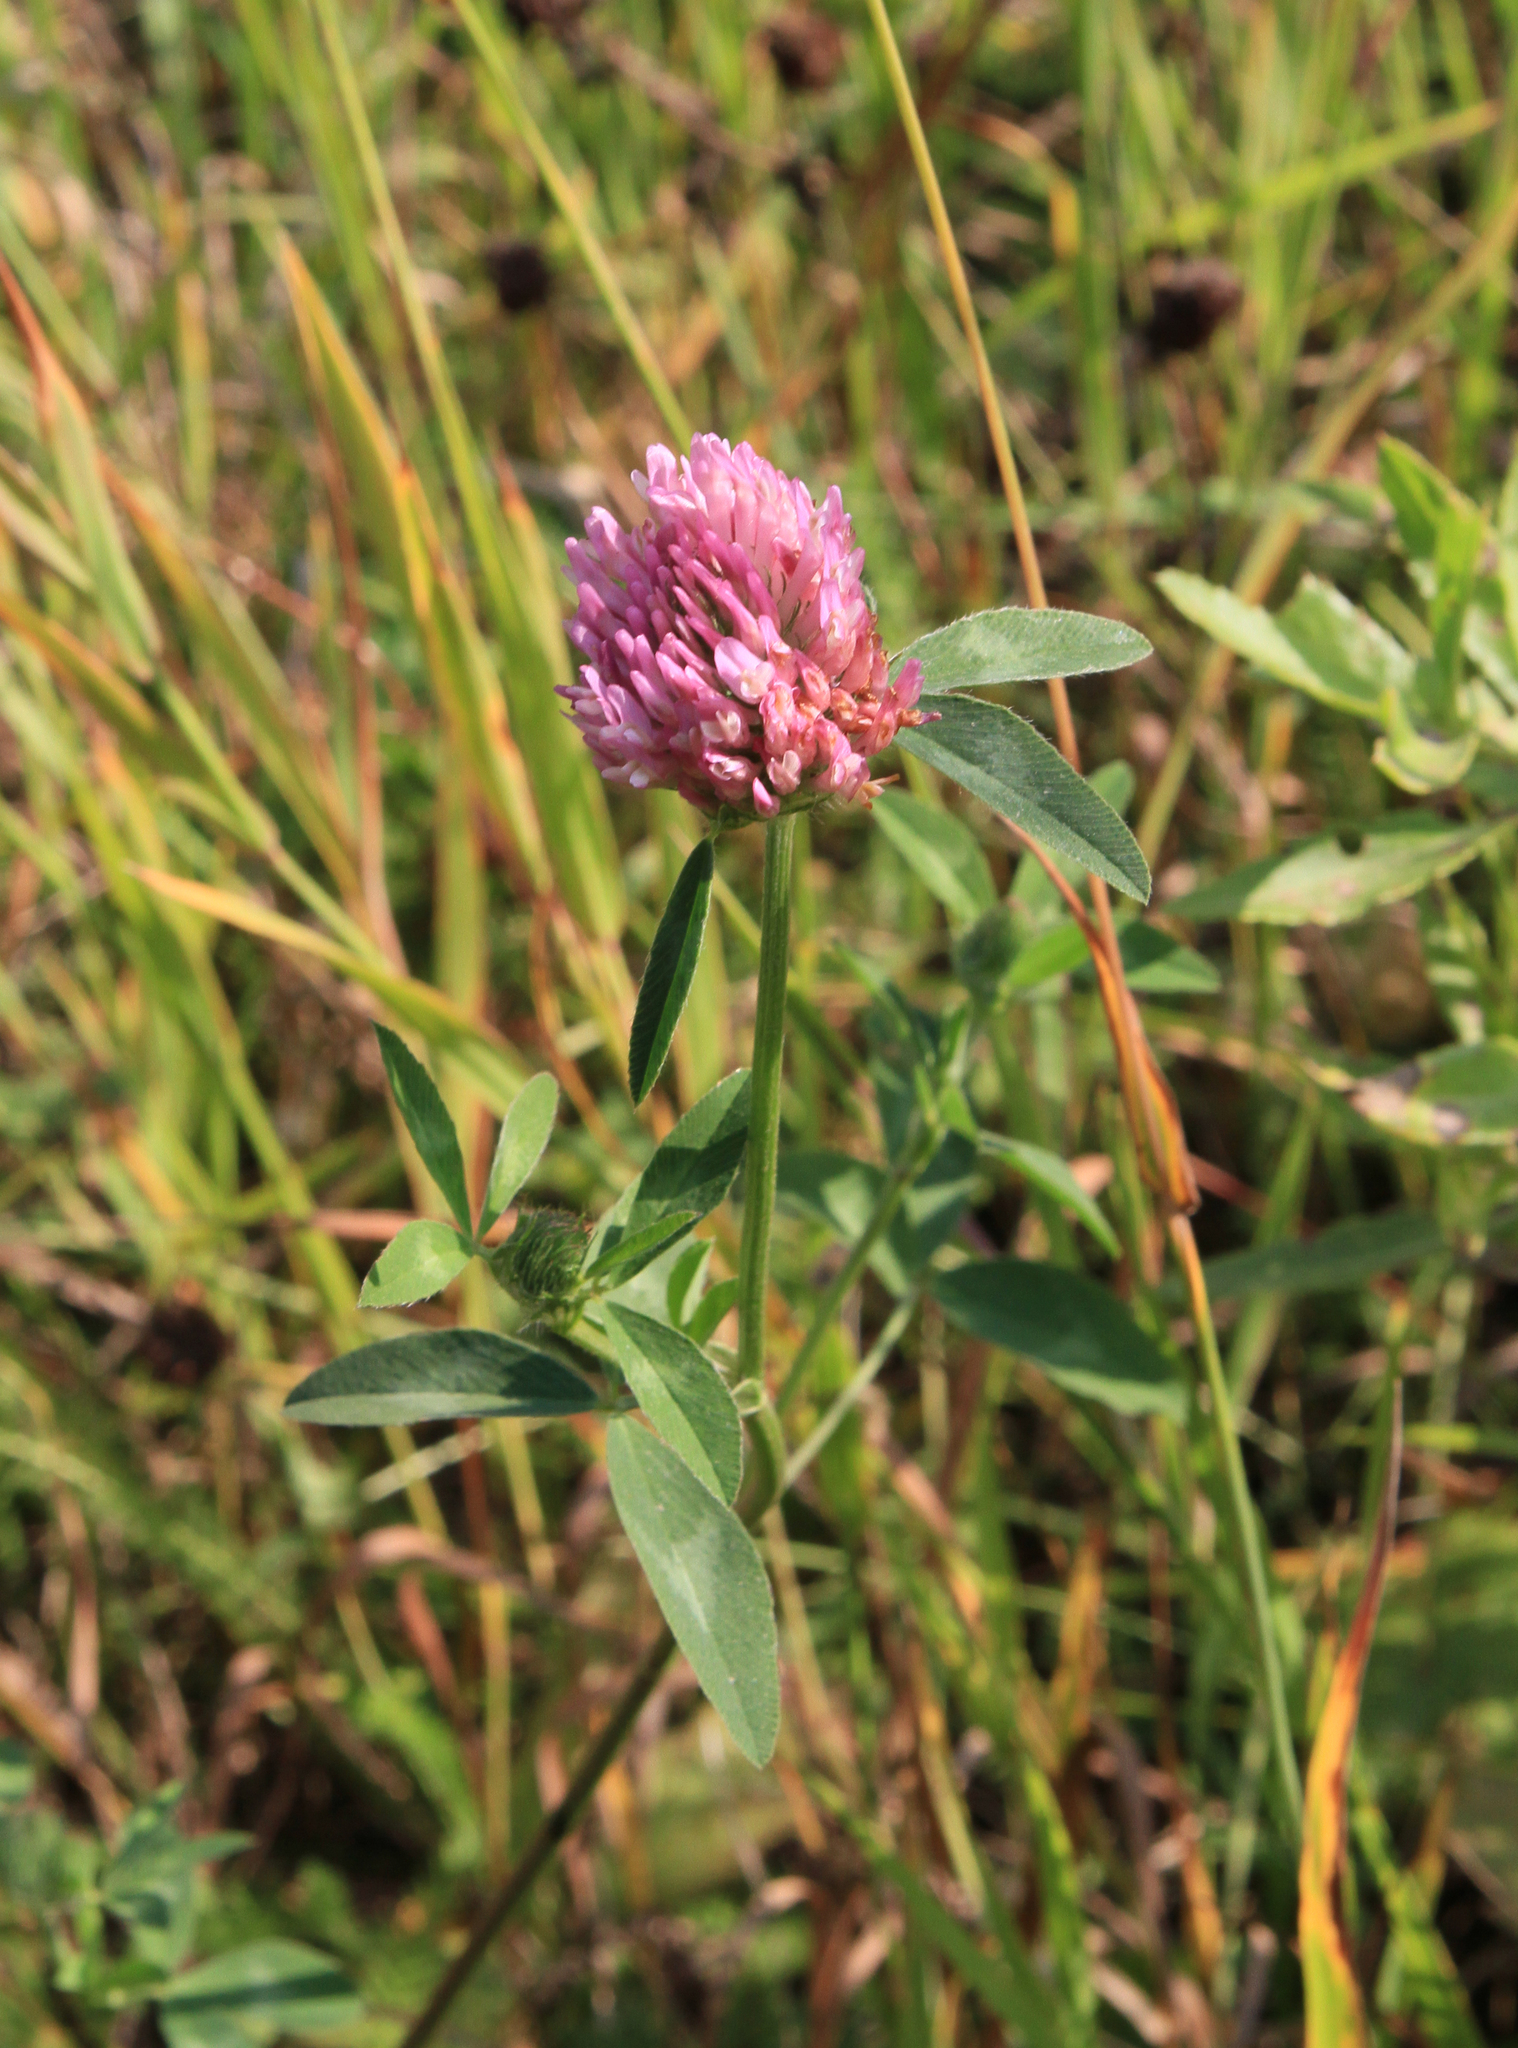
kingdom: Plantae
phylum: Tracheophyta
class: Magnoliopsida
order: Fabales
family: Fabaceae
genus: Trifolium
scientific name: Trifolium pratense
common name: Red clover
